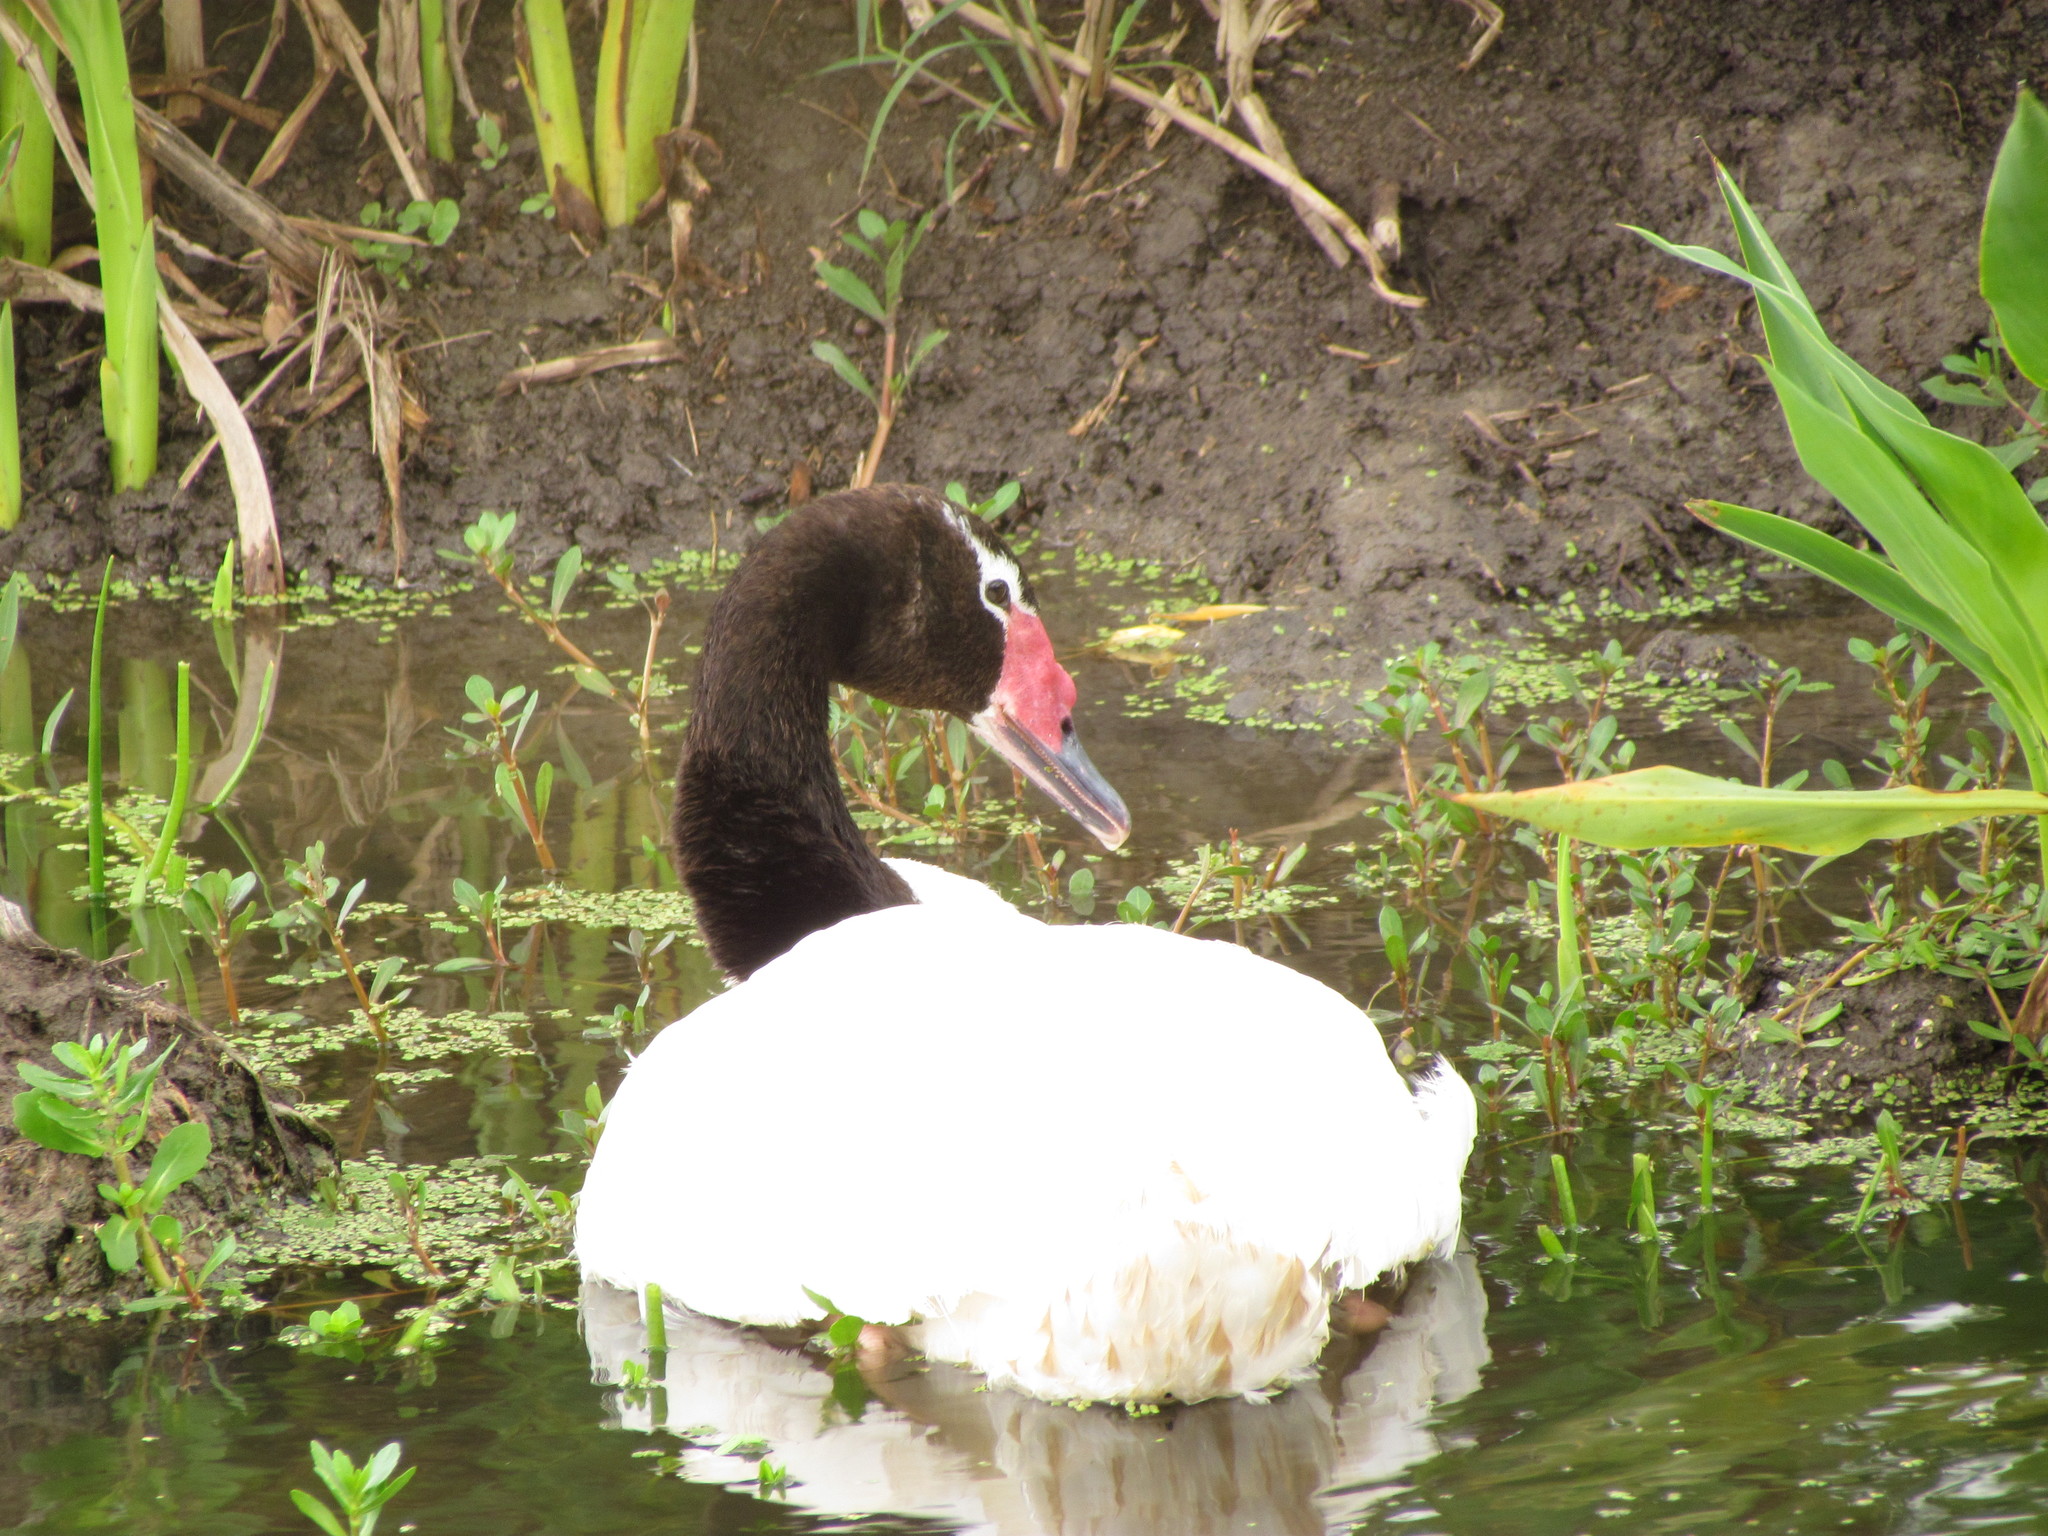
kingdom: Animalia
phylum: Chordata
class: Aves
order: Anseriformes
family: Anatidae
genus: Cygnus
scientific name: Cygnus melancoryphus
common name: Black-necked swan
